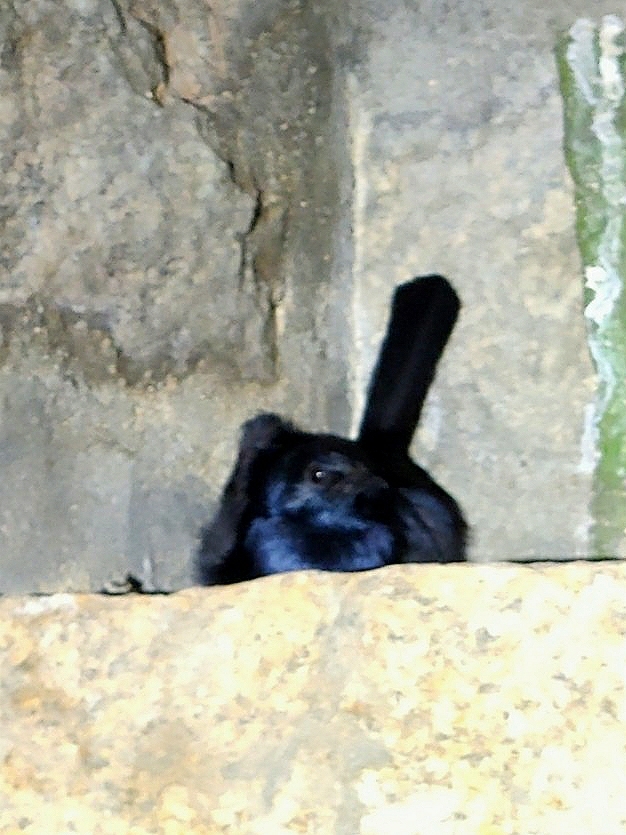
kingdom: Animalia
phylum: Chordata
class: Aves
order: Passeriformes
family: Muscicapidae
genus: Saxicoloides
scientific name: Saxicoloides fulicatus
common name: Indian robin
